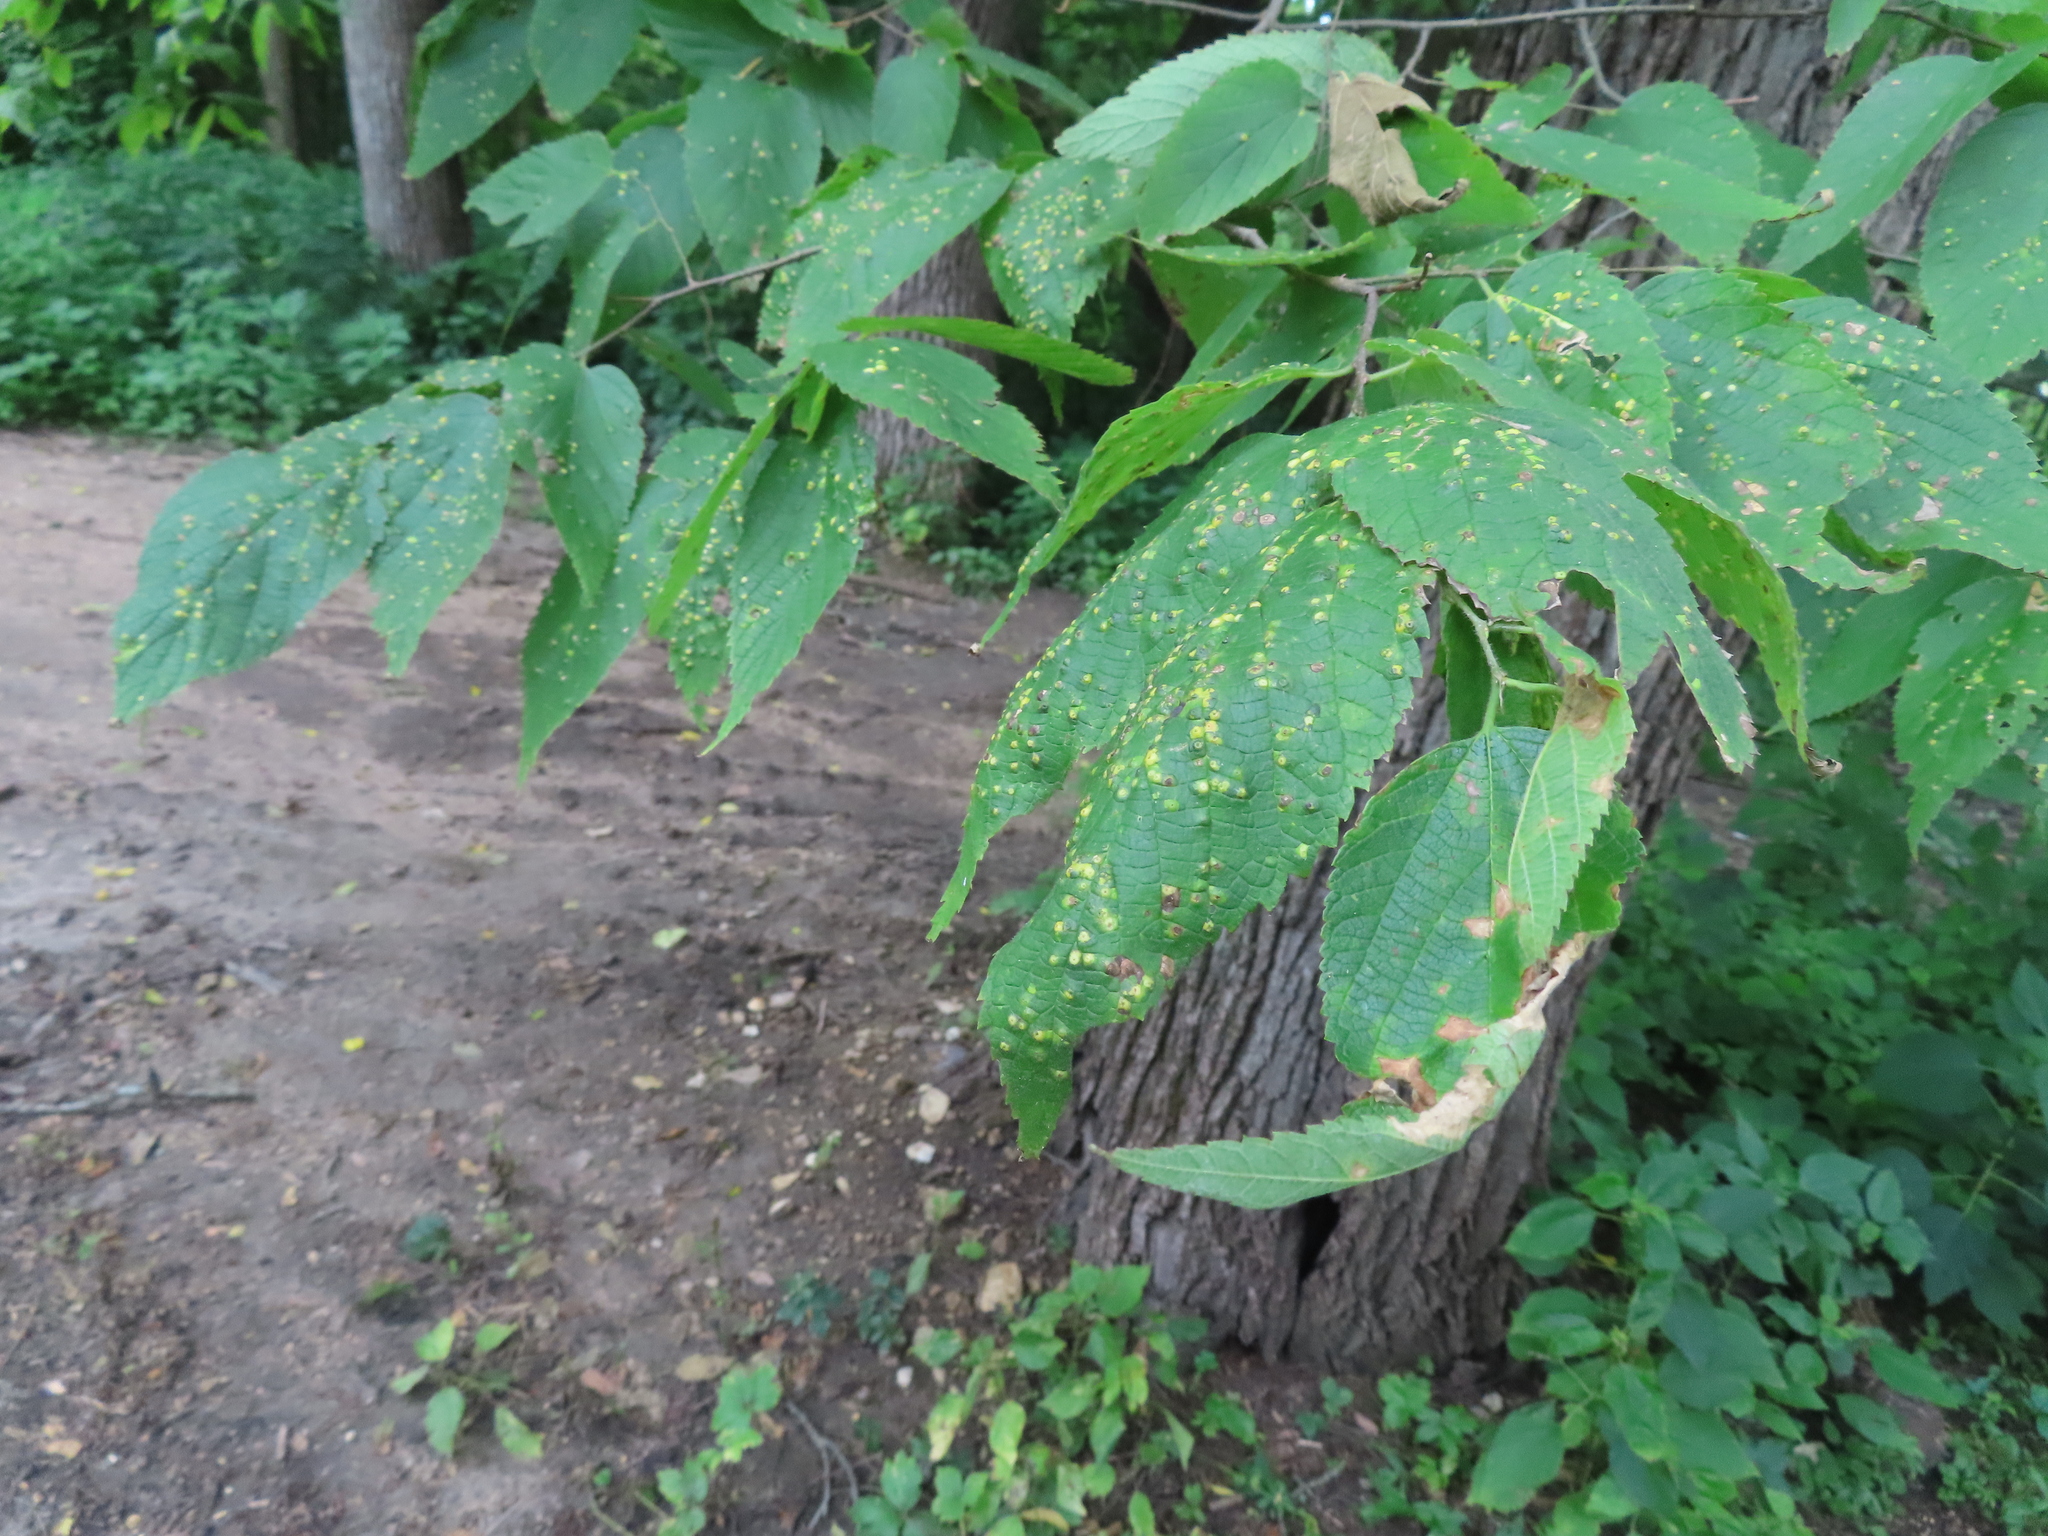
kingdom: Animalia
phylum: Arthropoda
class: Insecta
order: Hemiptera
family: Aphalaridae
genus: Pachypsylla
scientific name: Pachypsylla celtidisvesicula
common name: Hackberry blister gall psyllid
